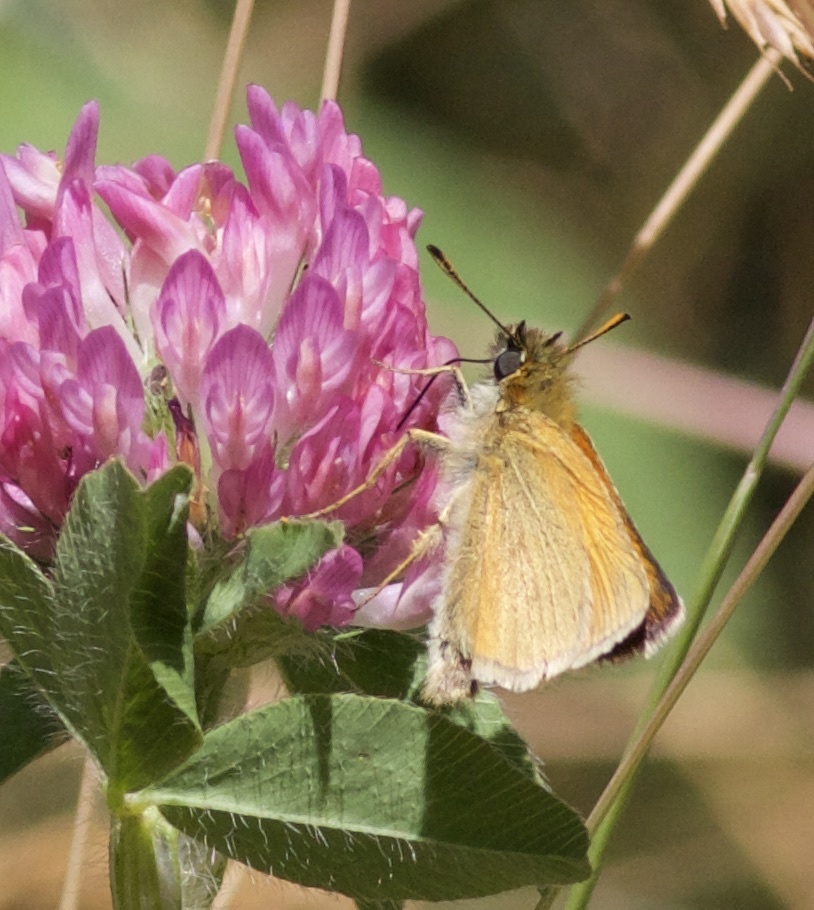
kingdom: Animalia
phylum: Arthropoda
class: Insecta
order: Lepidoptera
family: Hesperiidae
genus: Thymelicus
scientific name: Thymelicus lineola
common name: Essex skipper
